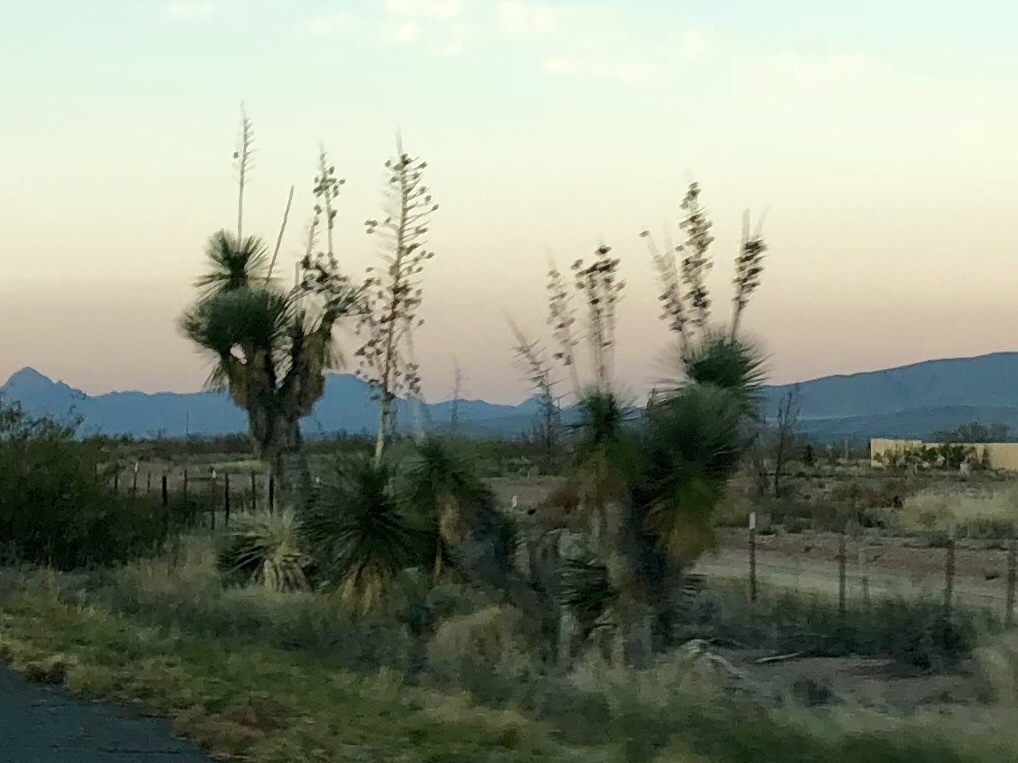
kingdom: Plantae
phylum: Tracheophyta
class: Liliopsida
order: Asparagales
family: Asparagaceae
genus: Yucca
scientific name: Yucca elata
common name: Palmella
